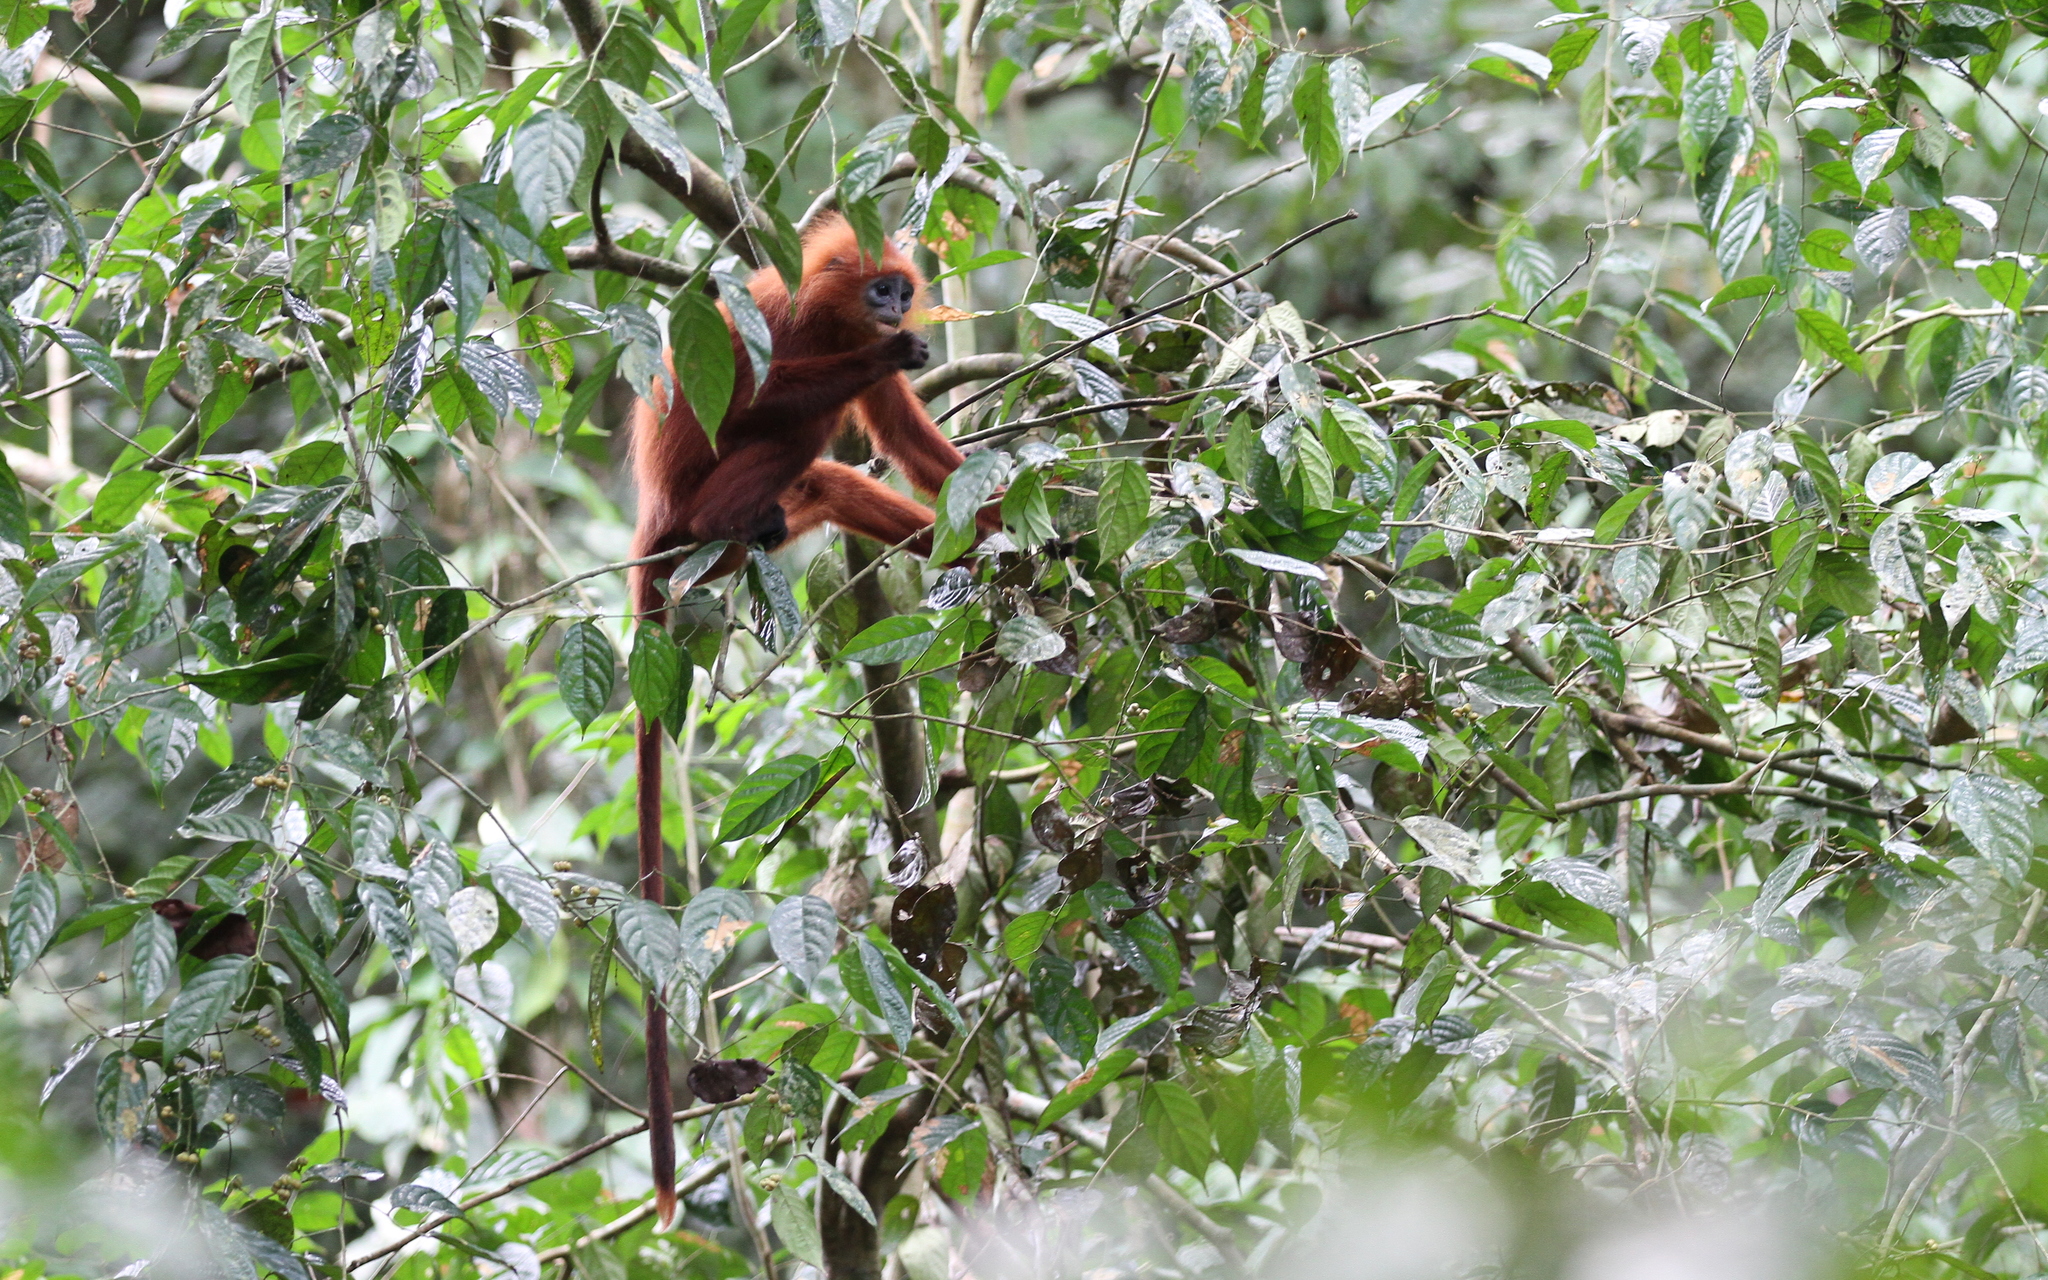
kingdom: Animalia
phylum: Chordata
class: Mammalia
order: Primates
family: Cercopithecidae
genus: Presbytis
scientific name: Presbytis rubicunda
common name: Maroon leaf monkey
